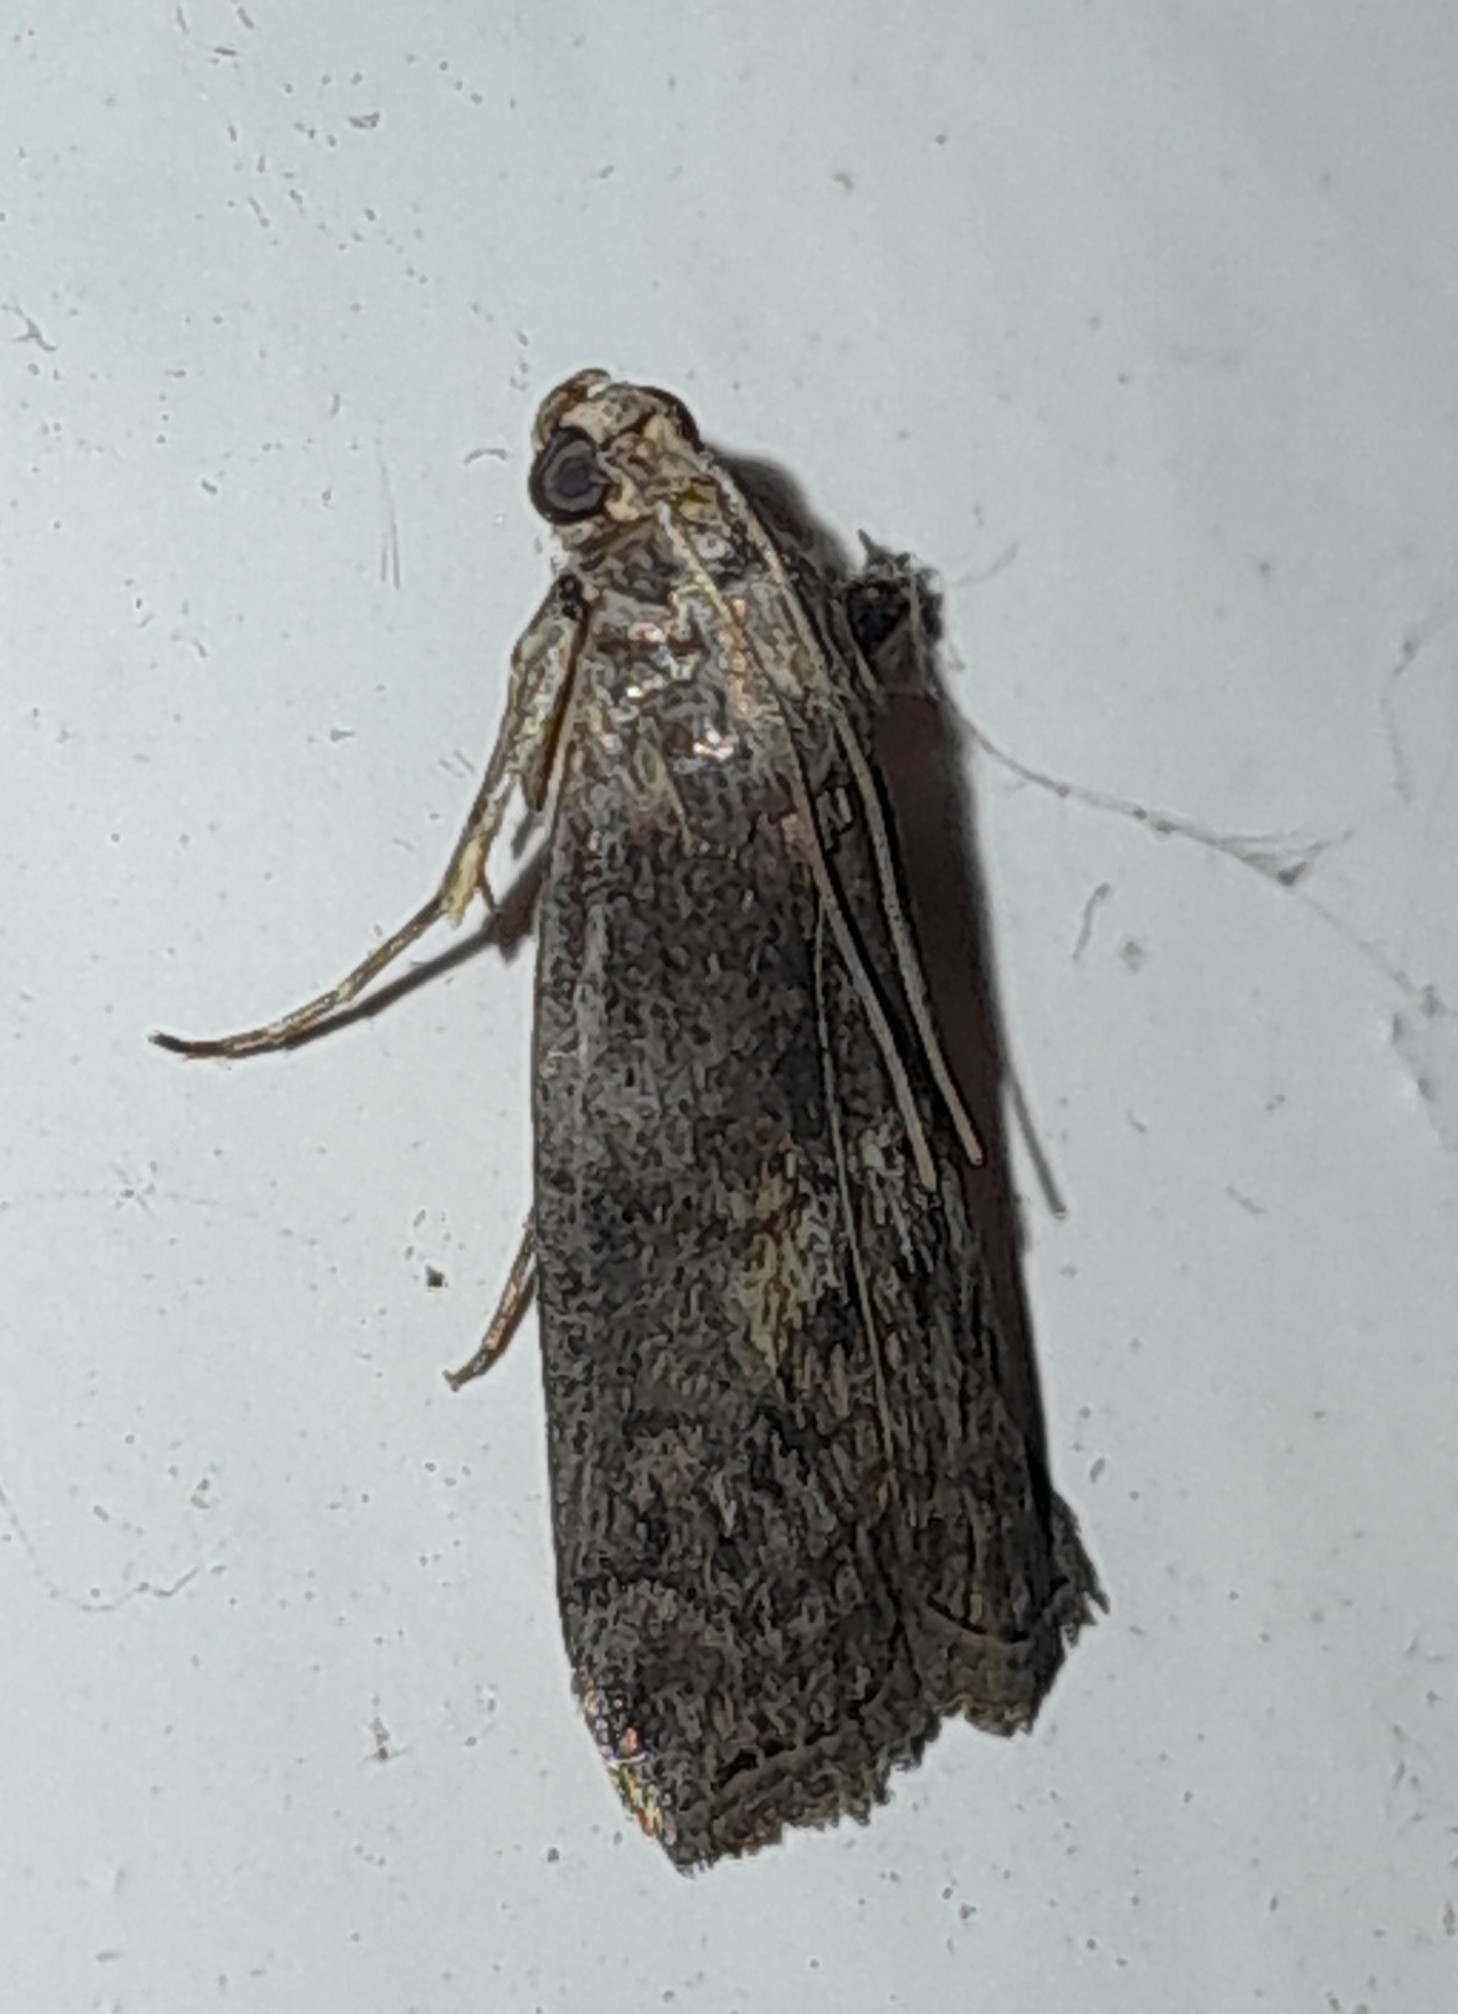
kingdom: Animalia
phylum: Arthropoda
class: Insecta
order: Lepidoptera
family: Pyralidae
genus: Phycita
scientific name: Phycita roborella
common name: Dotted oak knot-horn
